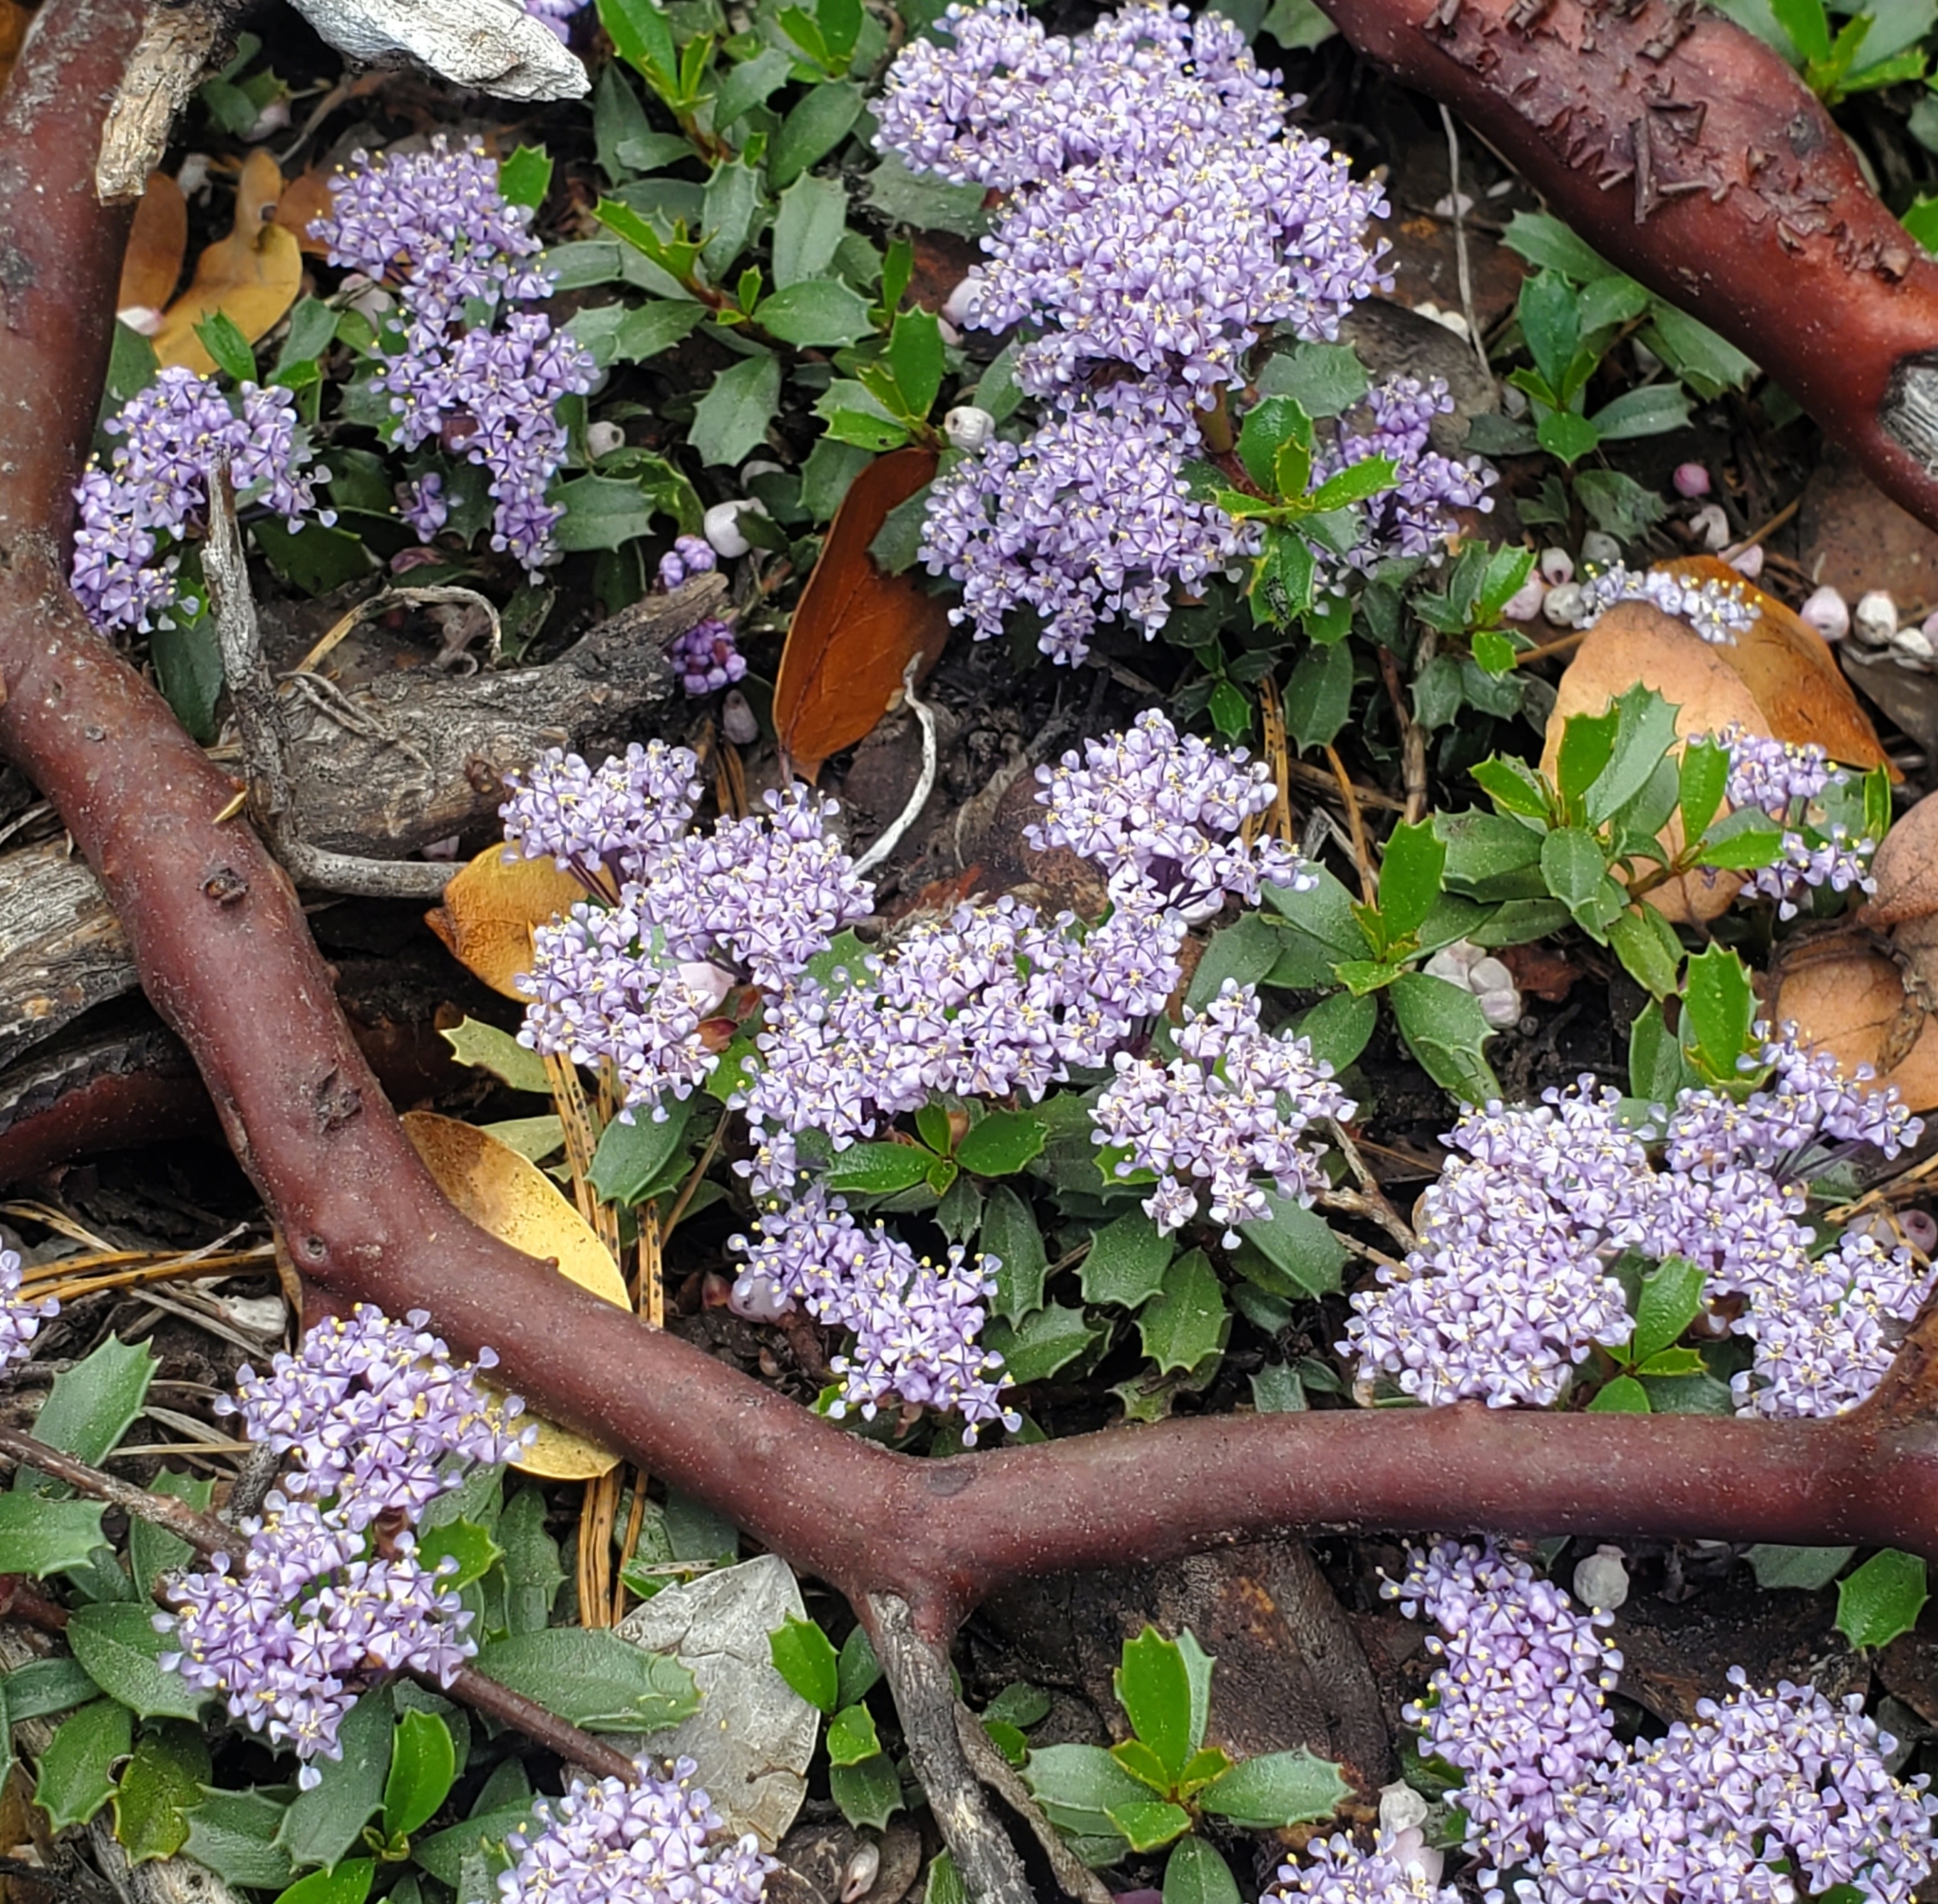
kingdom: Plantae
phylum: Tracheophyta
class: Magnoliopsida
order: Rosales
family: Rhamnaceae
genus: Ceanothus
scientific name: Ceanothus prostratus
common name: Mahala-mat
